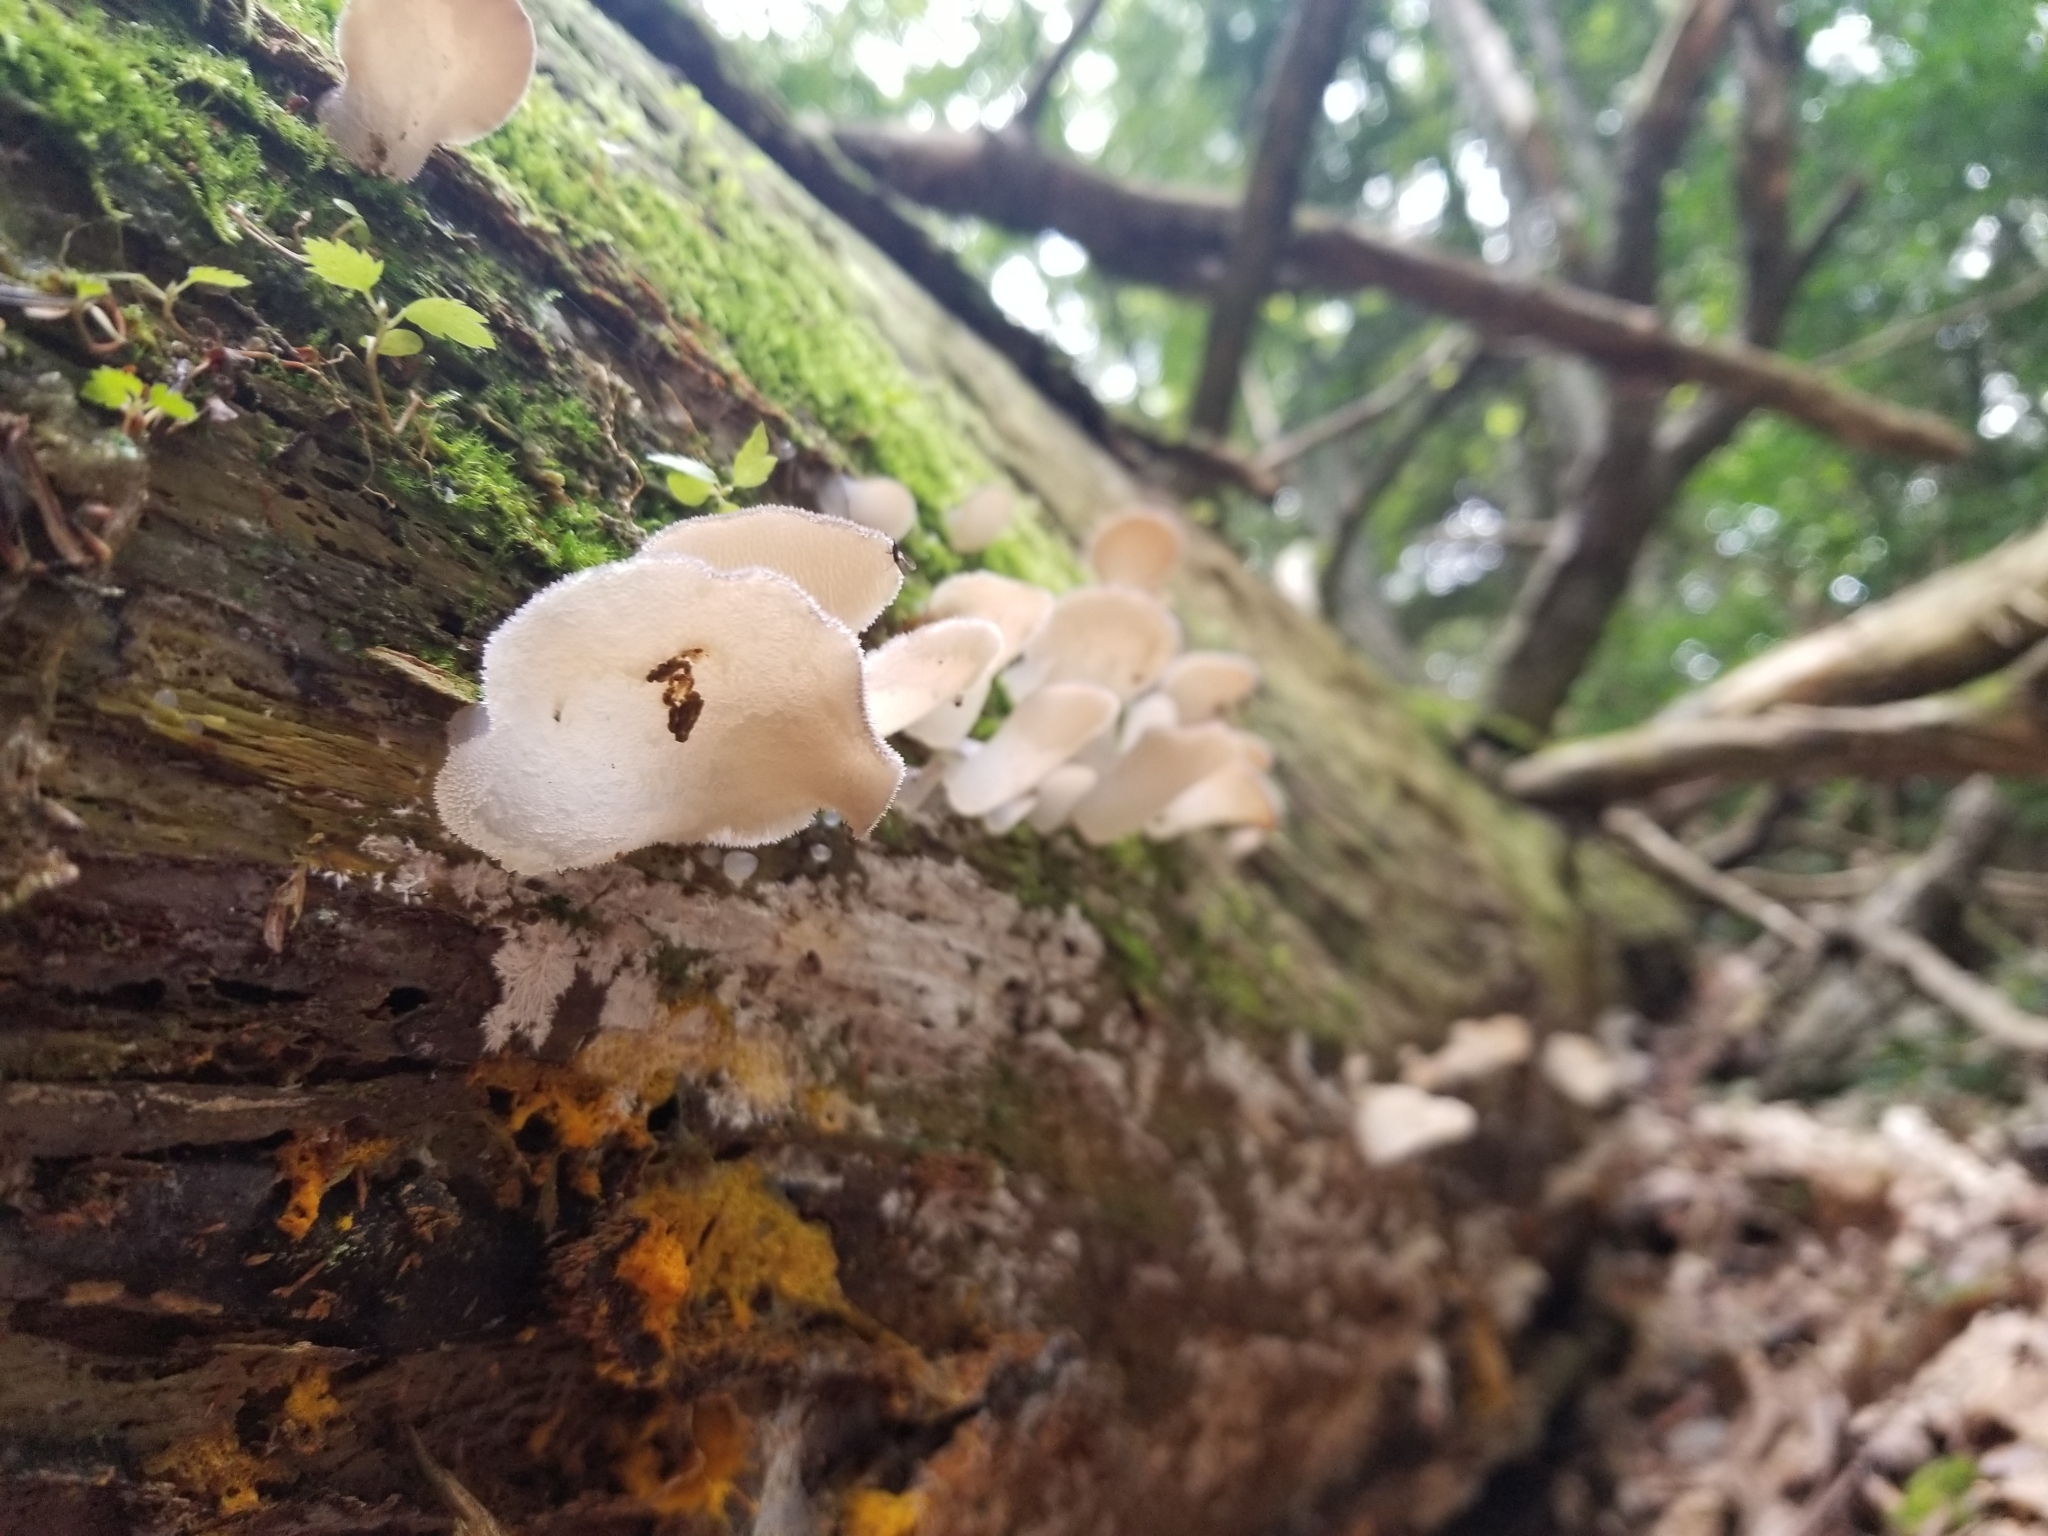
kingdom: Fungi
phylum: Basidiomycota
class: Agaricomycetes
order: Auriculariales
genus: Pseudohydnum
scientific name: Pseudohydnum gelatinosum
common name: Jelly tongue
